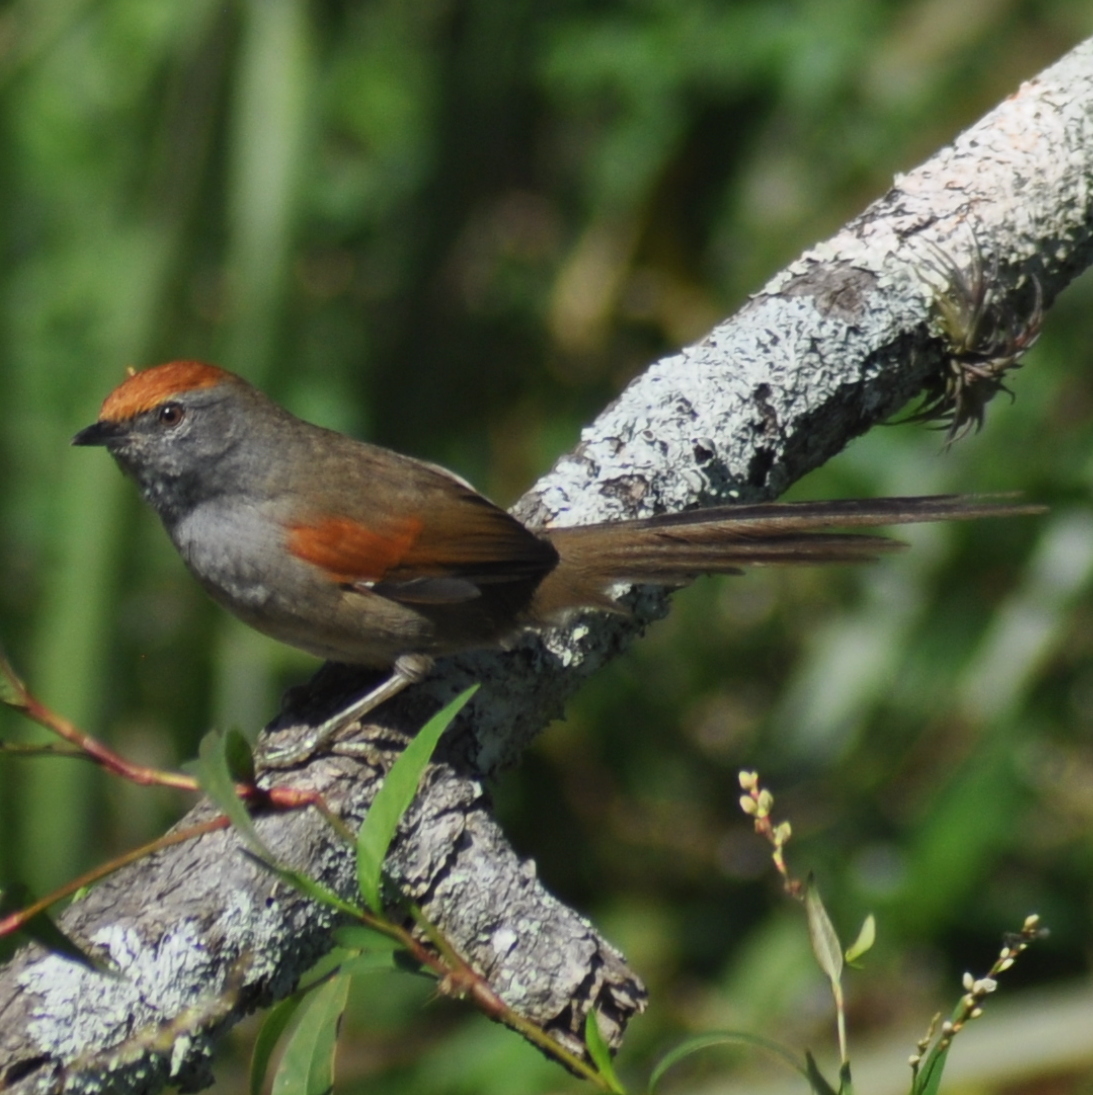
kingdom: Animalia
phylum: Chordata
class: Aves
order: Passeriformes
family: Furnariidae
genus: Synallaxis
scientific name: Synallaxis spixi
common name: Spix's spinetail
